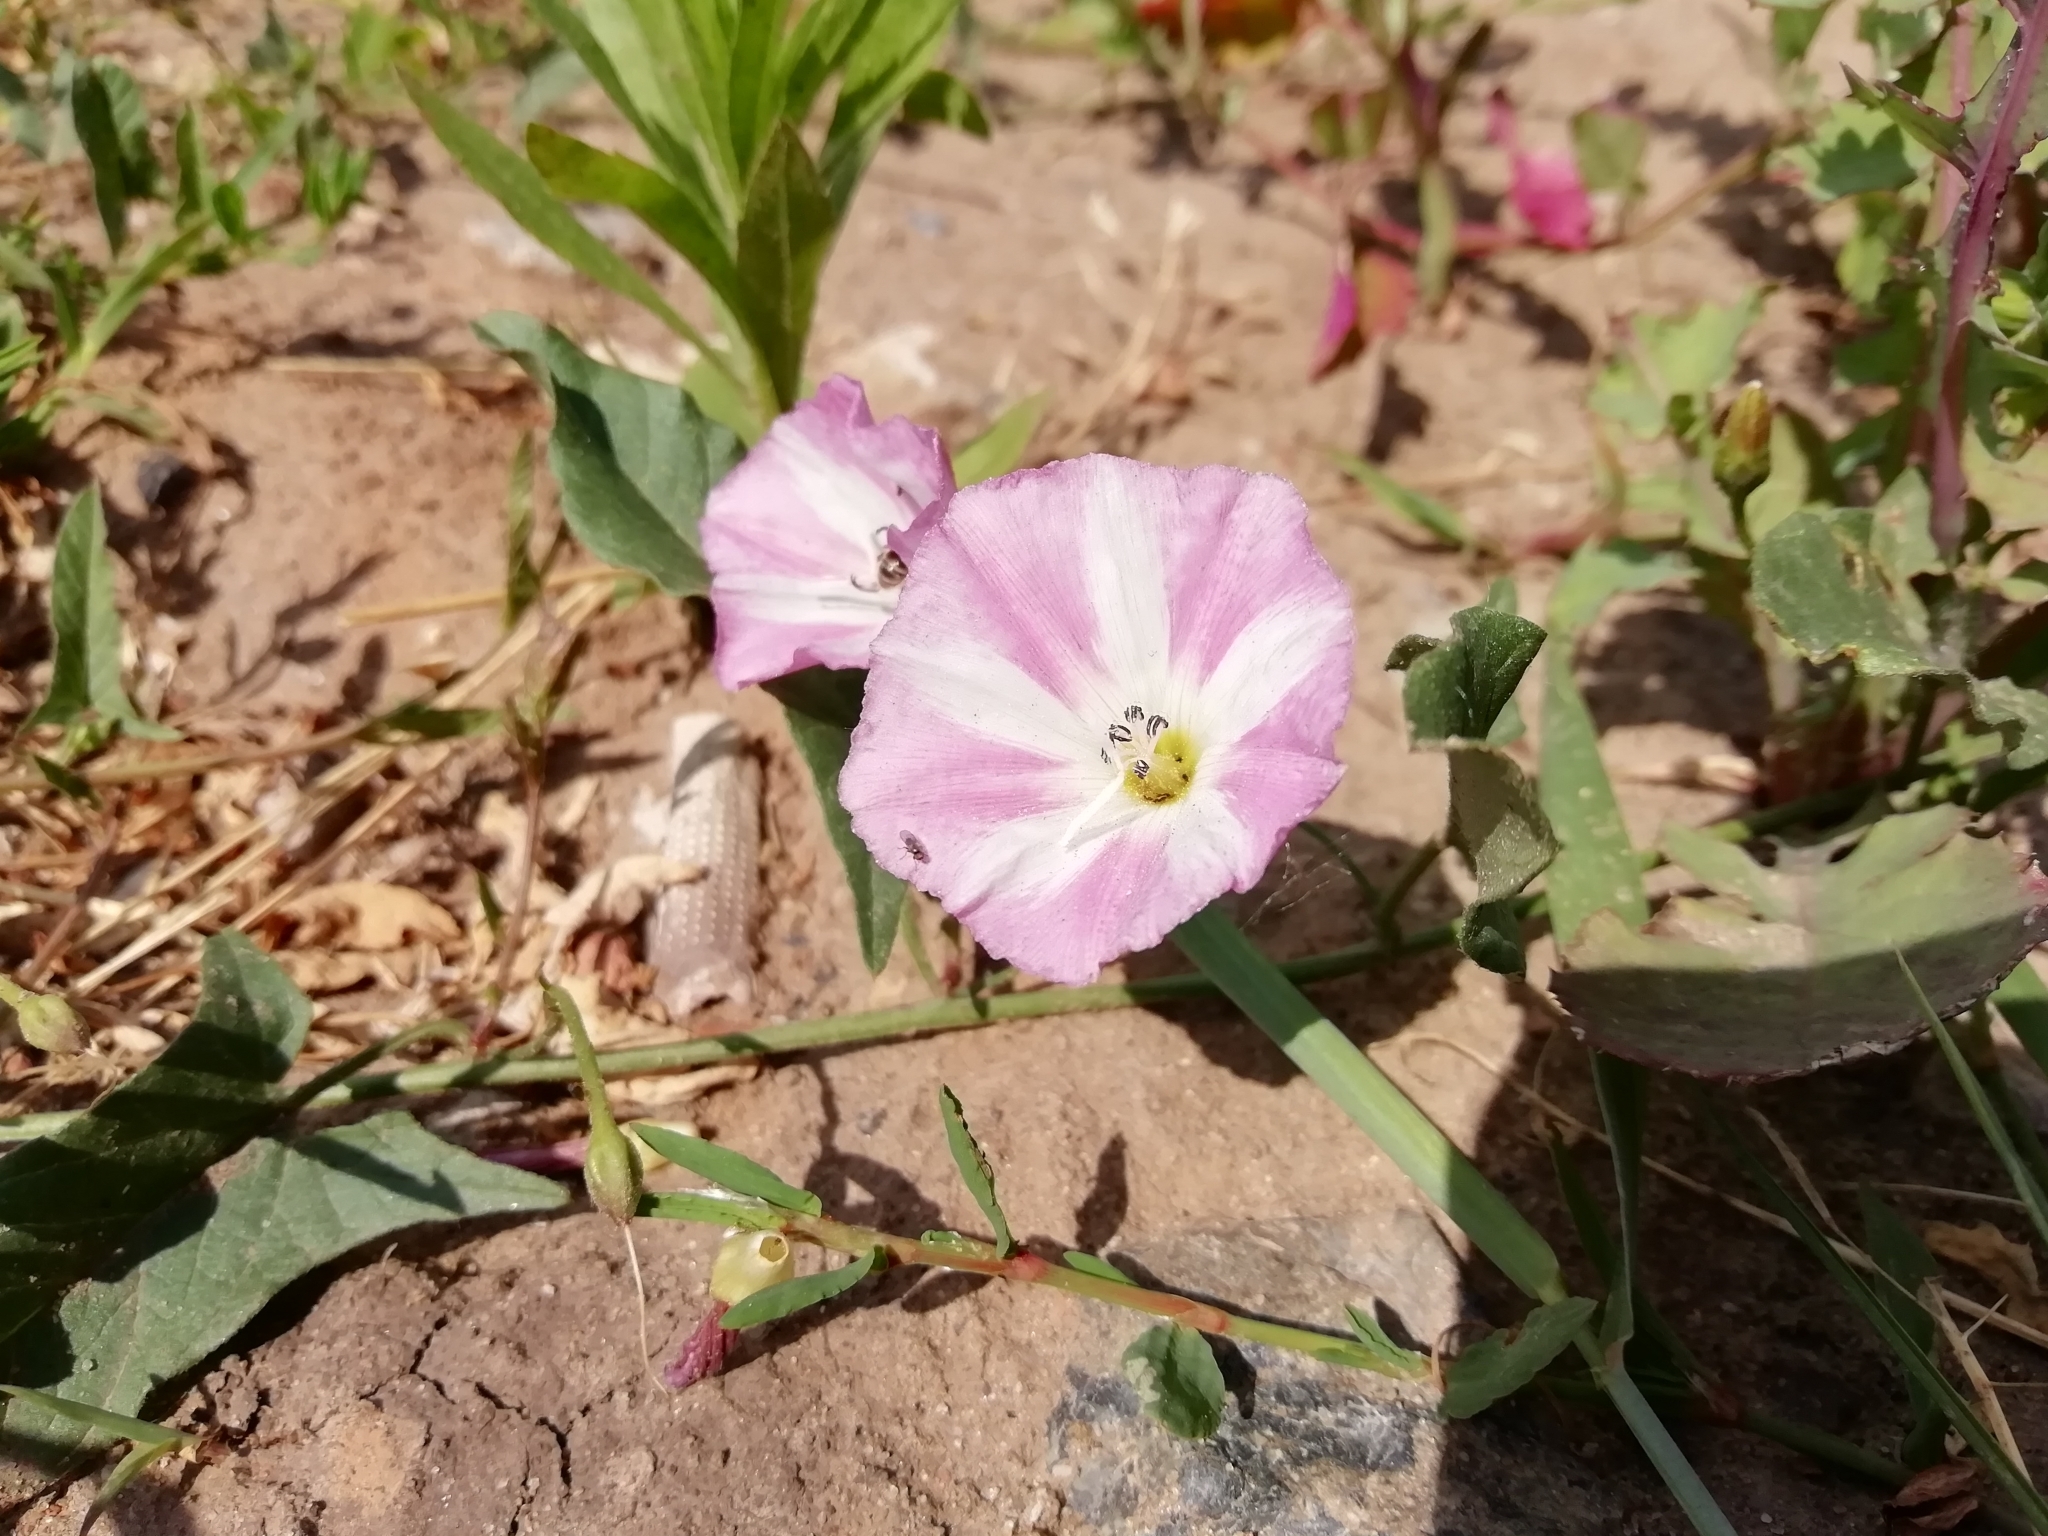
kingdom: Plantae
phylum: Tracheophyta
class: Magnoliopsida
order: Solanales
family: Convolvulaceae
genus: Convolvulus
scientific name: Convolvulus arvensis
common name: Field bindweed
